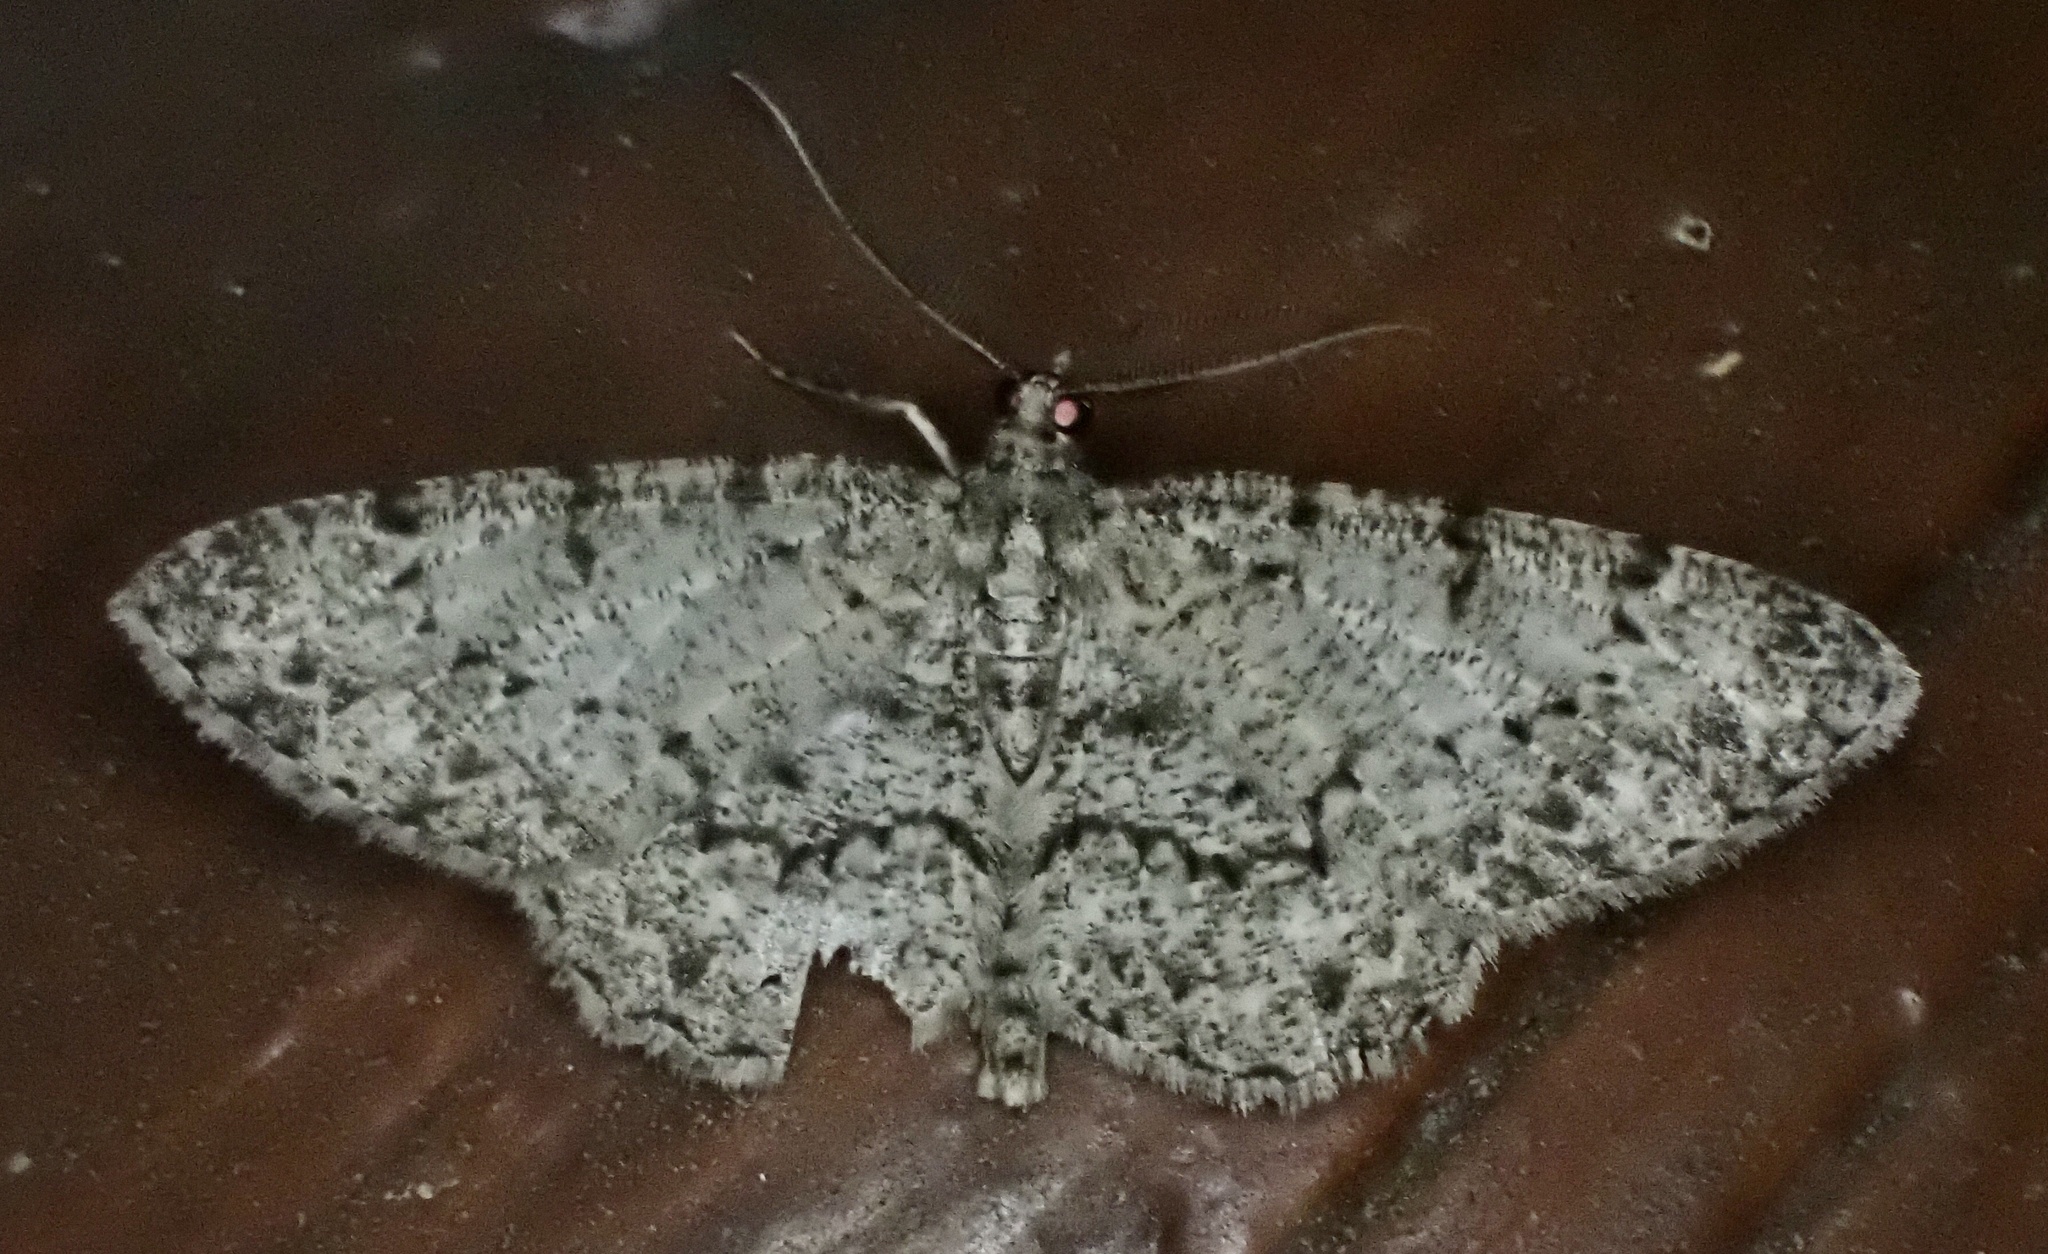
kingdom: Animalia
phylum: Arthropoda
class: Insecta
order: Lepidoptera
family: Geometridae
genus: Protoboarmia
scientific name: Protoboarmia porcelaria
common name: Porcelain gray
